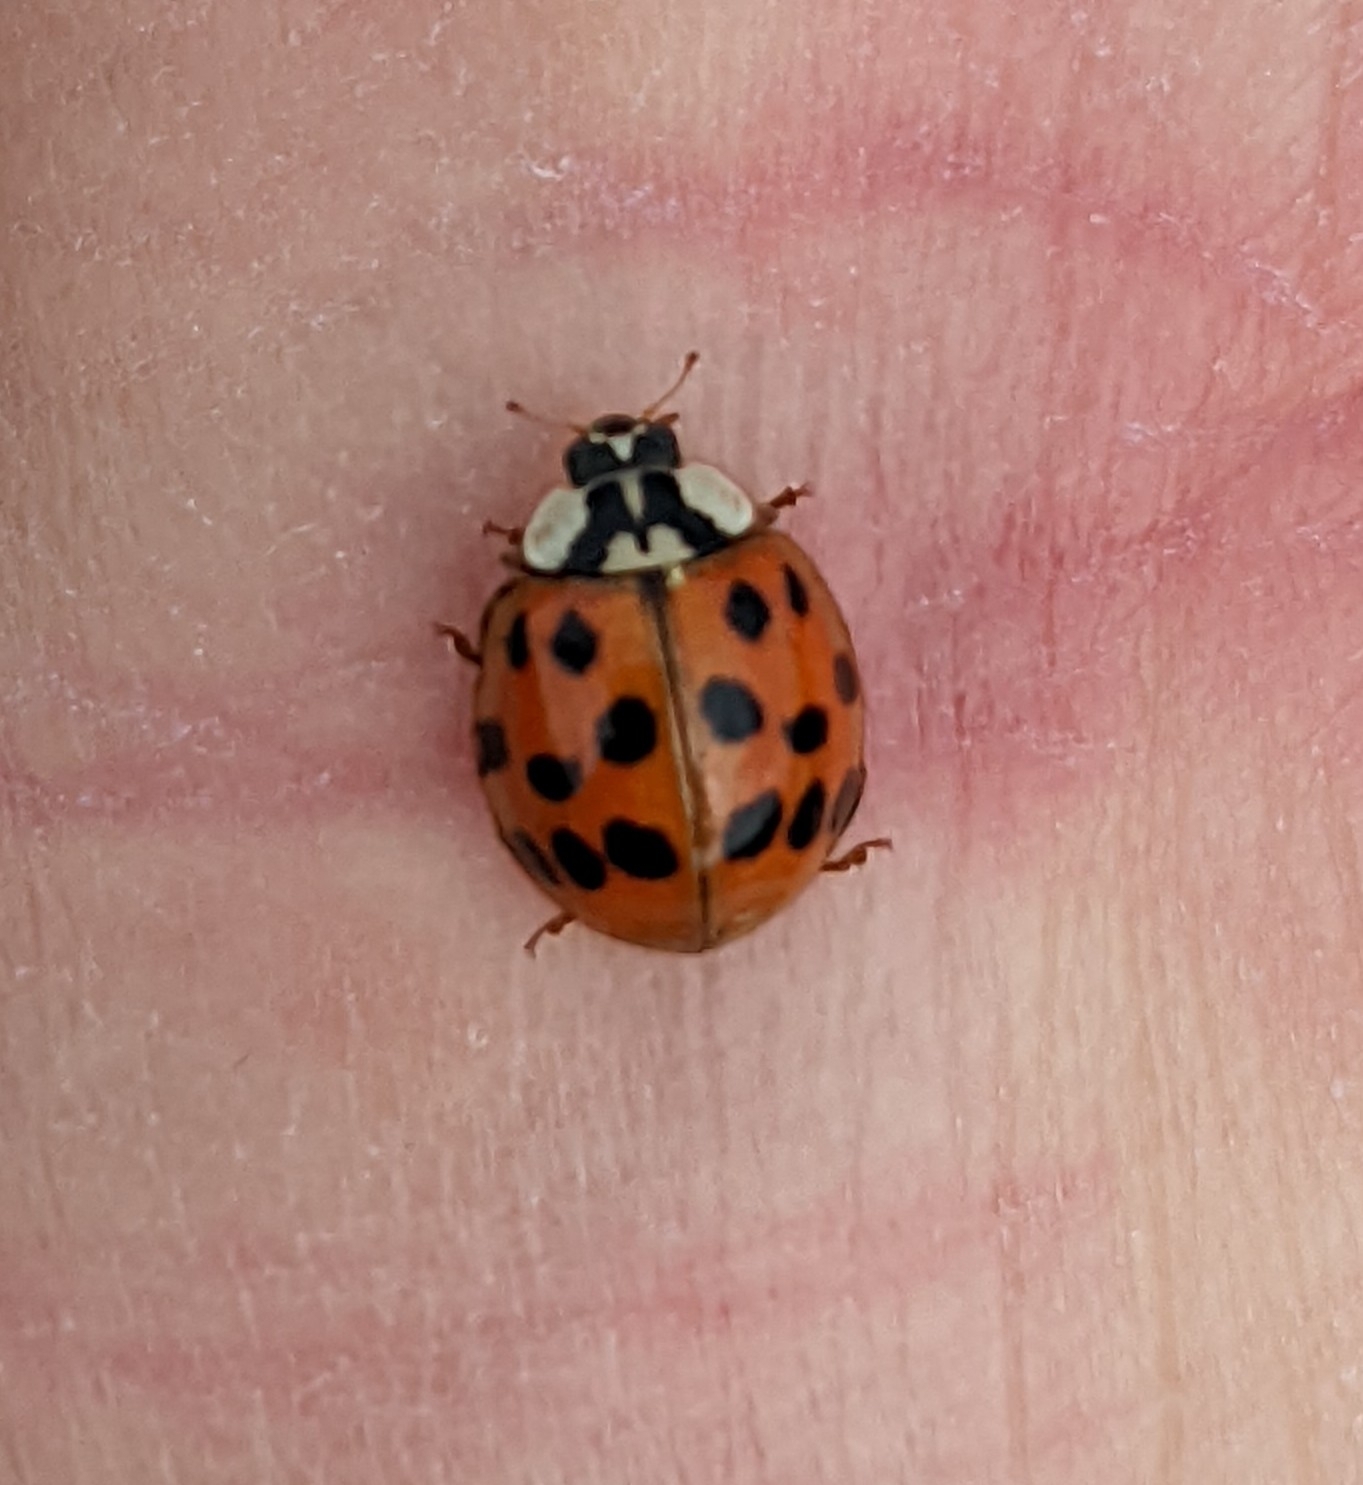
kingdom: Animalia
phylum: Arthropoda
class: Insecta
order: Coleoptera
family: Coccinellidae
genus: Harmonia
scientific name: Harmonia axyridis
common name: Harlequin ladybird
